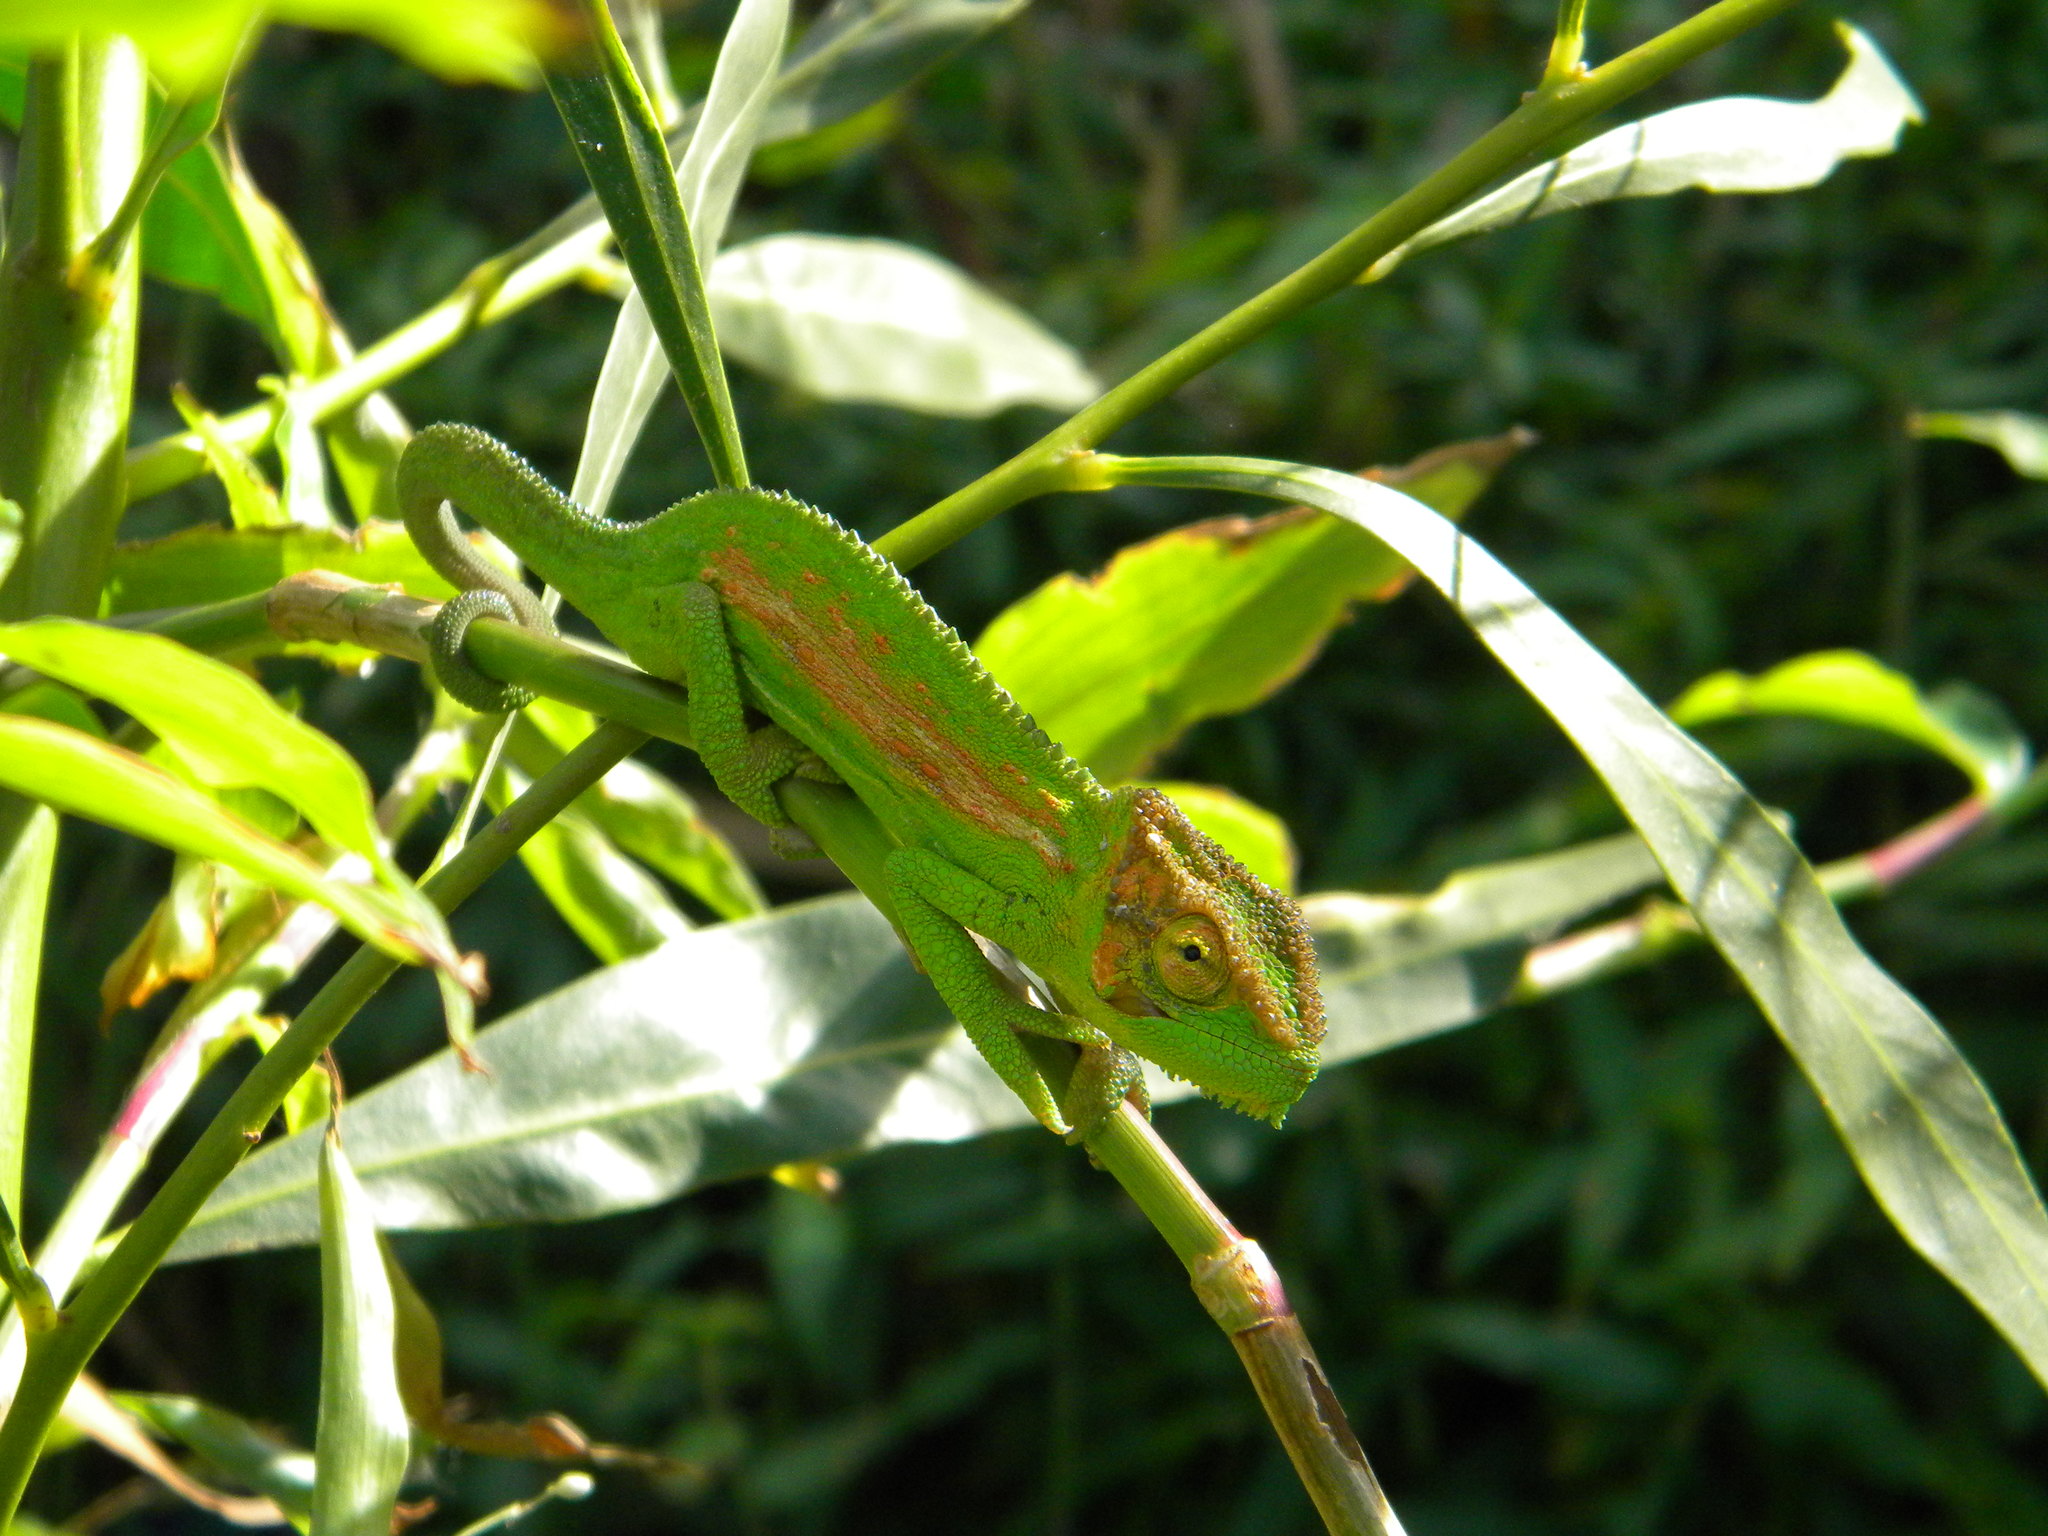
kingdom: Animalia
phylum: Chordata
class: Squamata
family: Chamaeleonidae
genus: Bradypodion
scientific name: Bradypodion pumilum
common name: Cape dwarf chameleon
